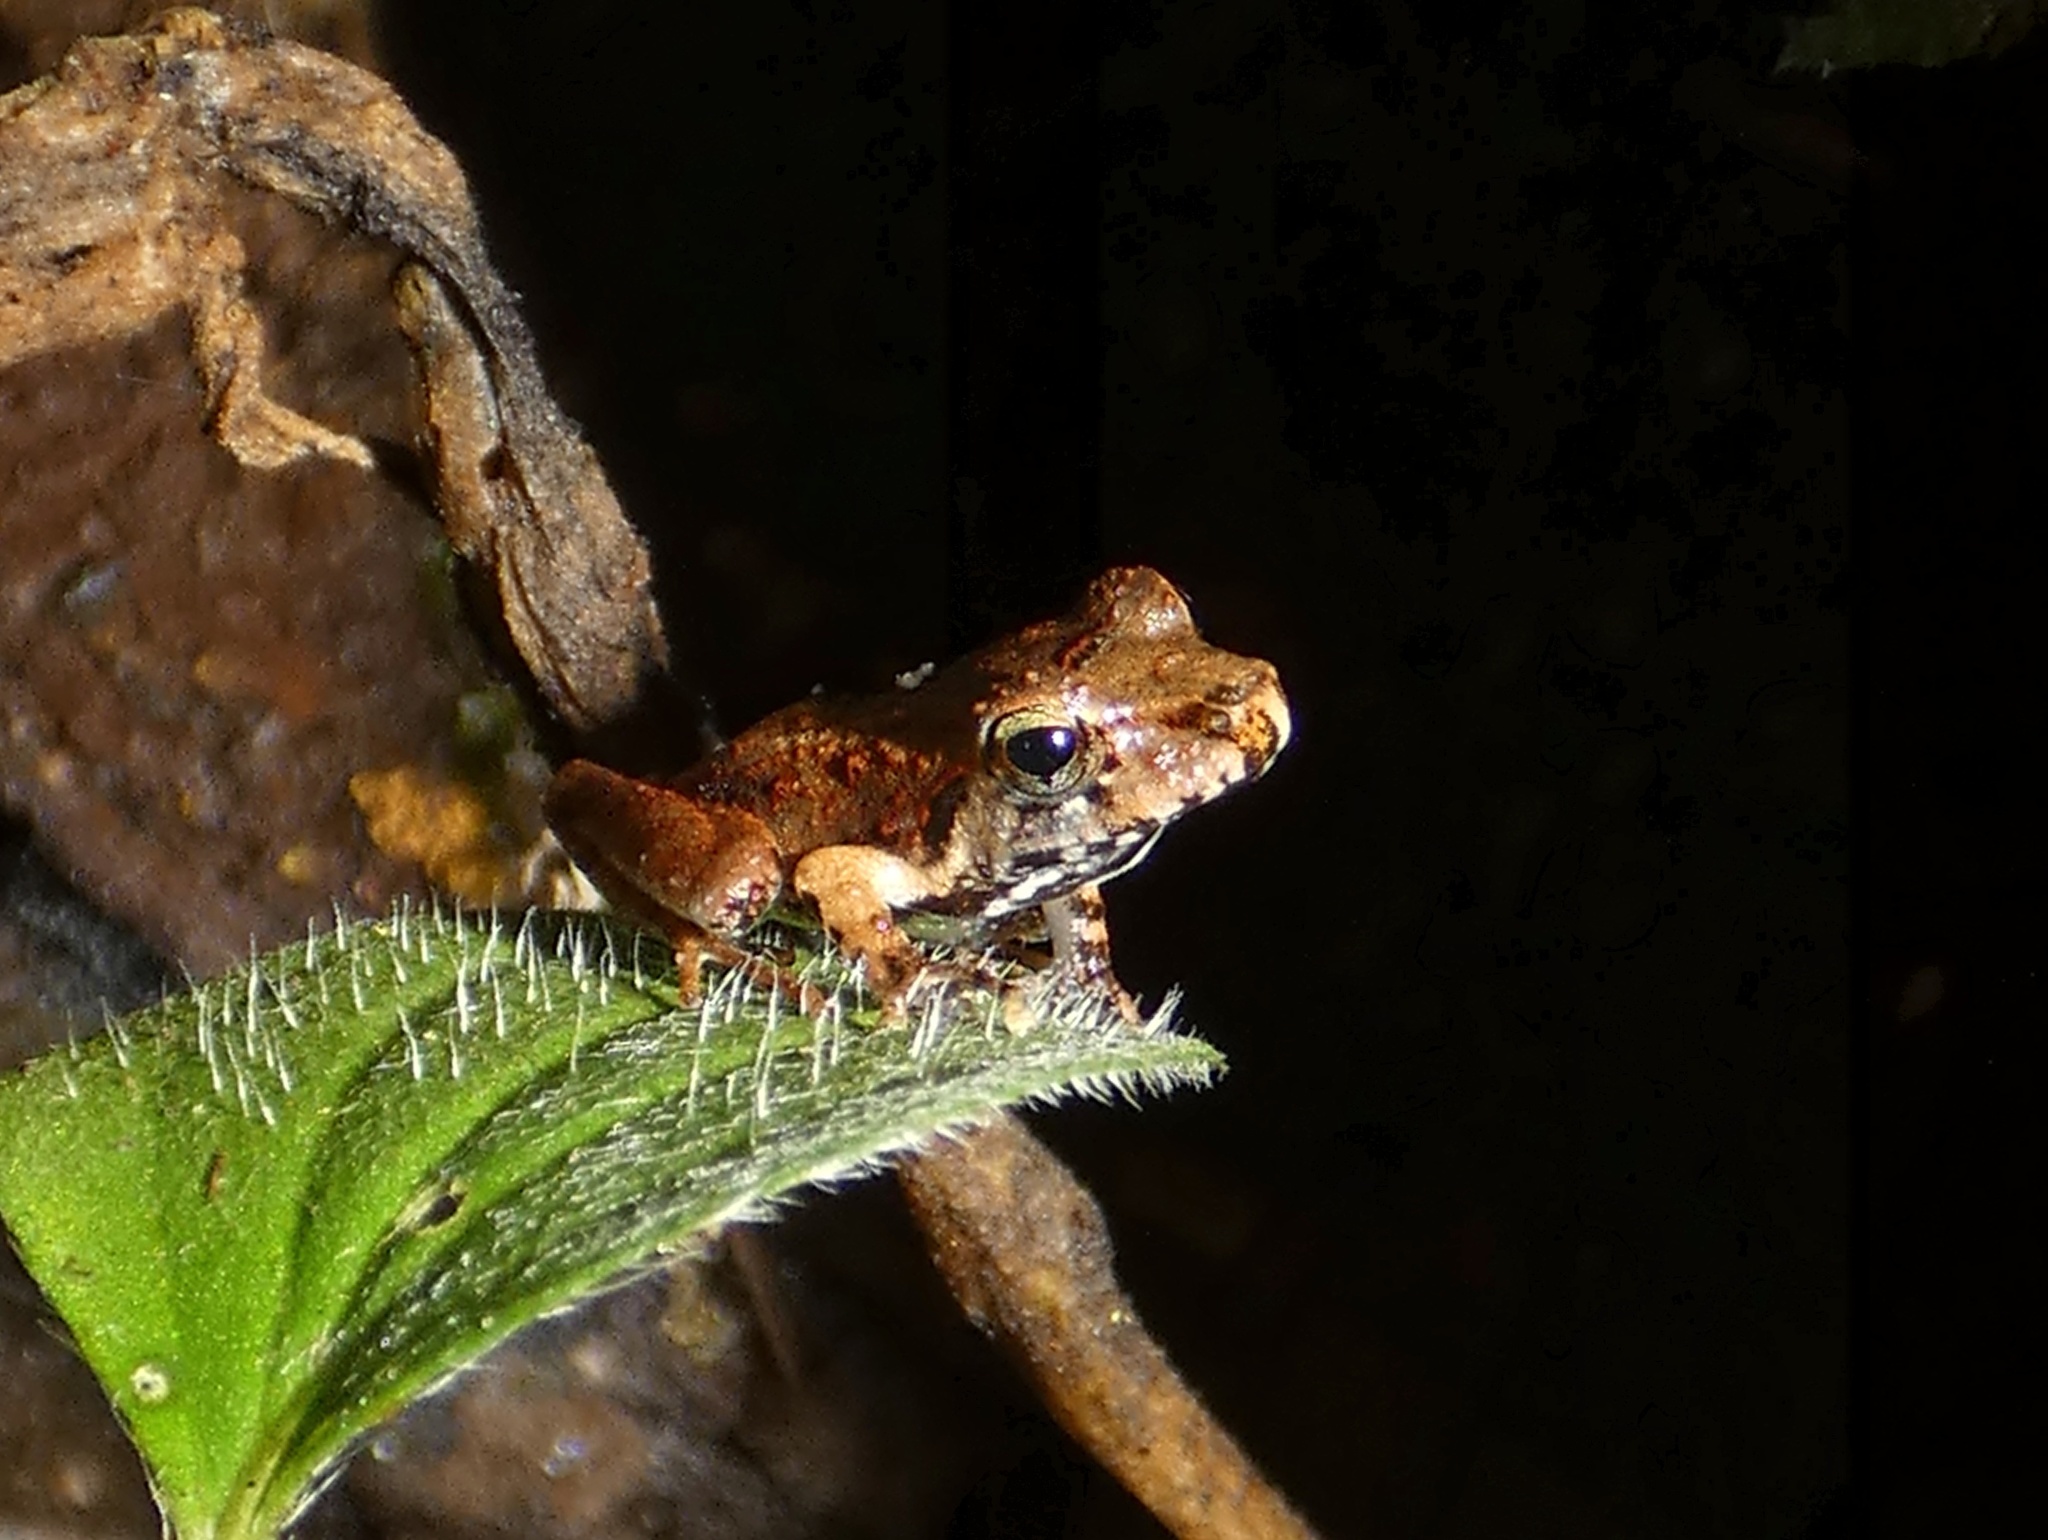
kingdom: Animalia
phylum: Chordata
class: Amphibia
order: Anura
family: Craugastoridae
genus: Craugastor
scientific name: Craugastor fitzingeri
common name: Fitzinger's robber frog
